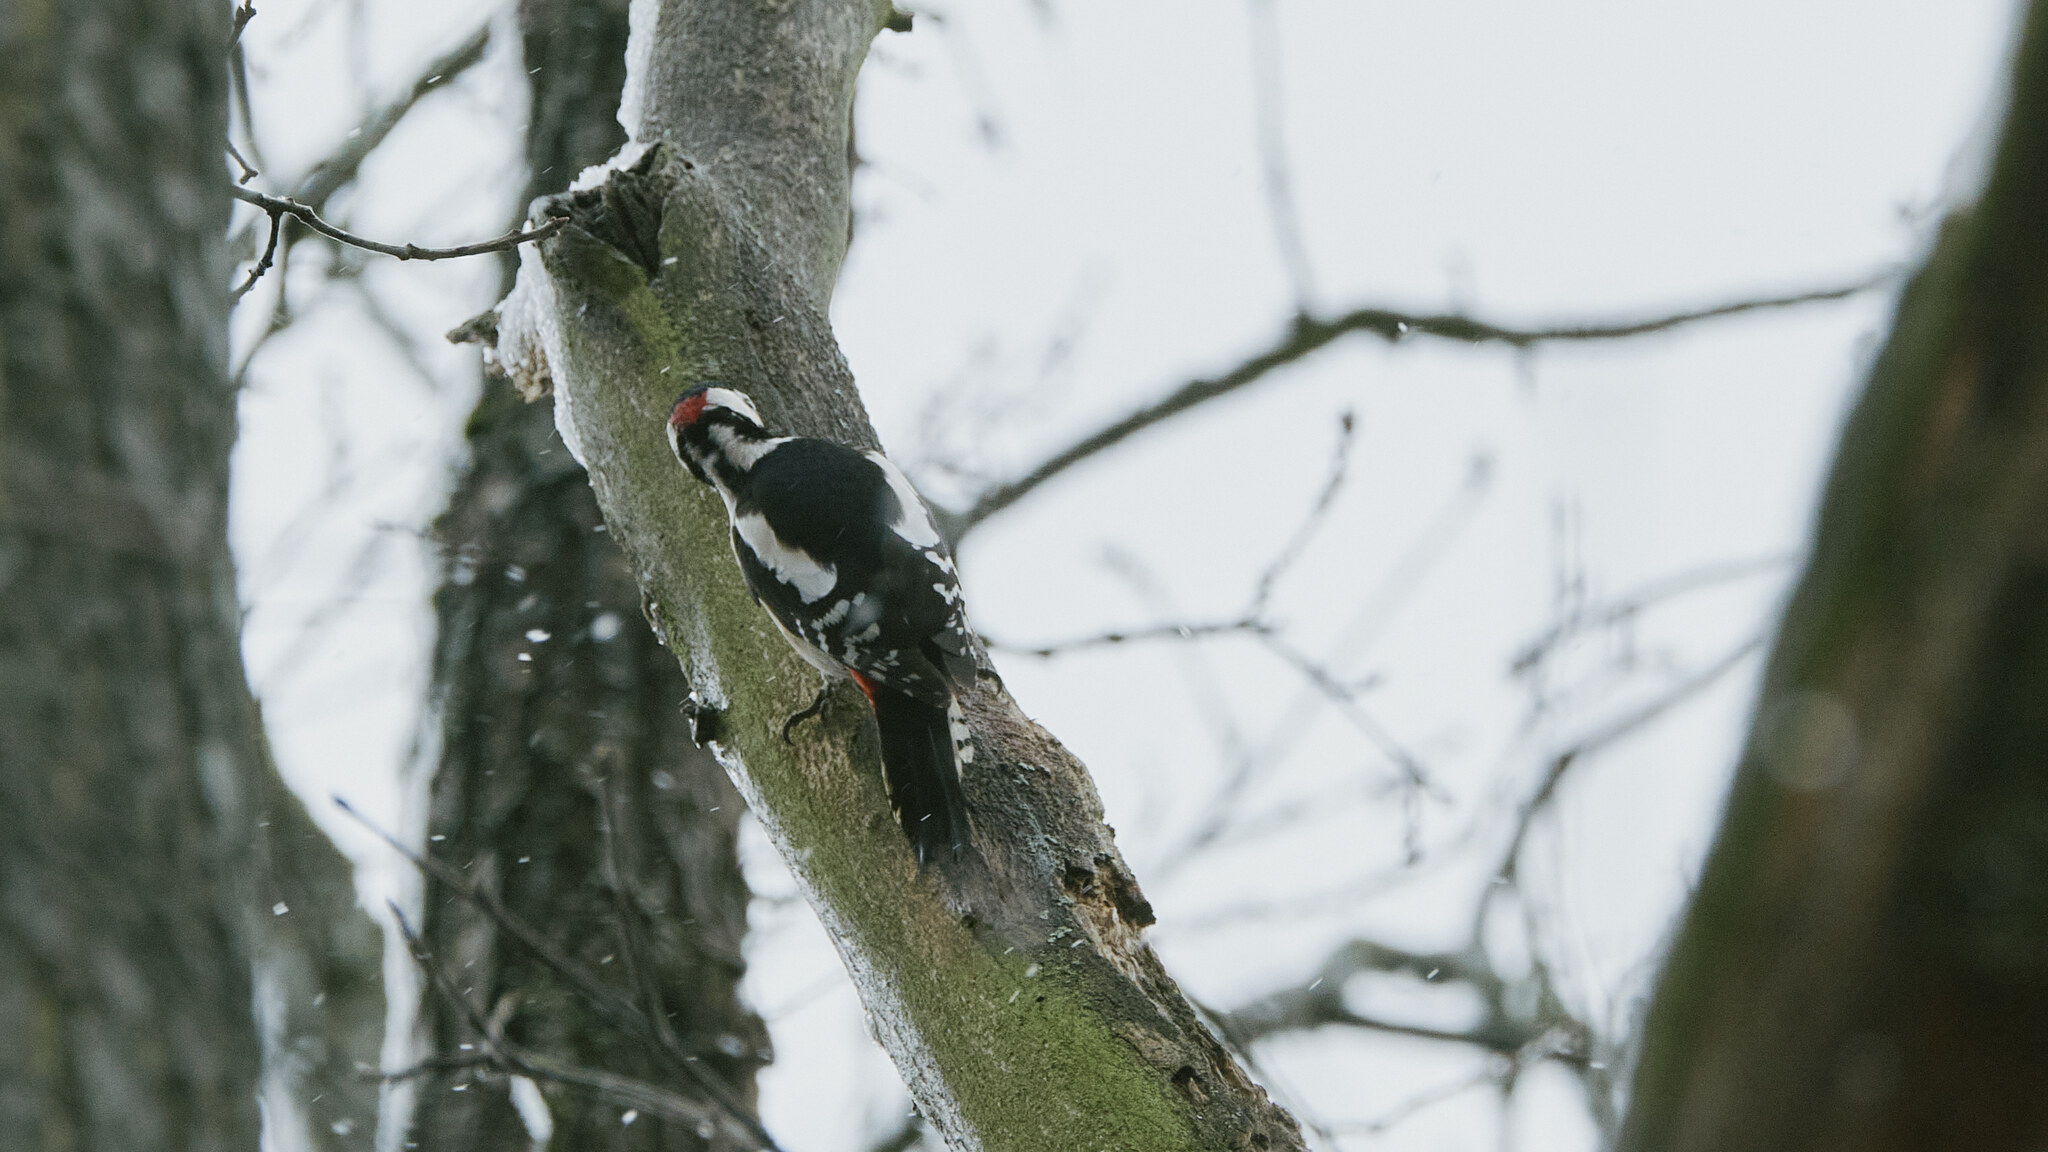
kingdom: Animalia
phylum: Chordata
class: Aves
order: Piciformes
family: Picidae
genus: Dendrocopos
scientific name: Dendrocopos major
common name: Great spotted woodpecker
